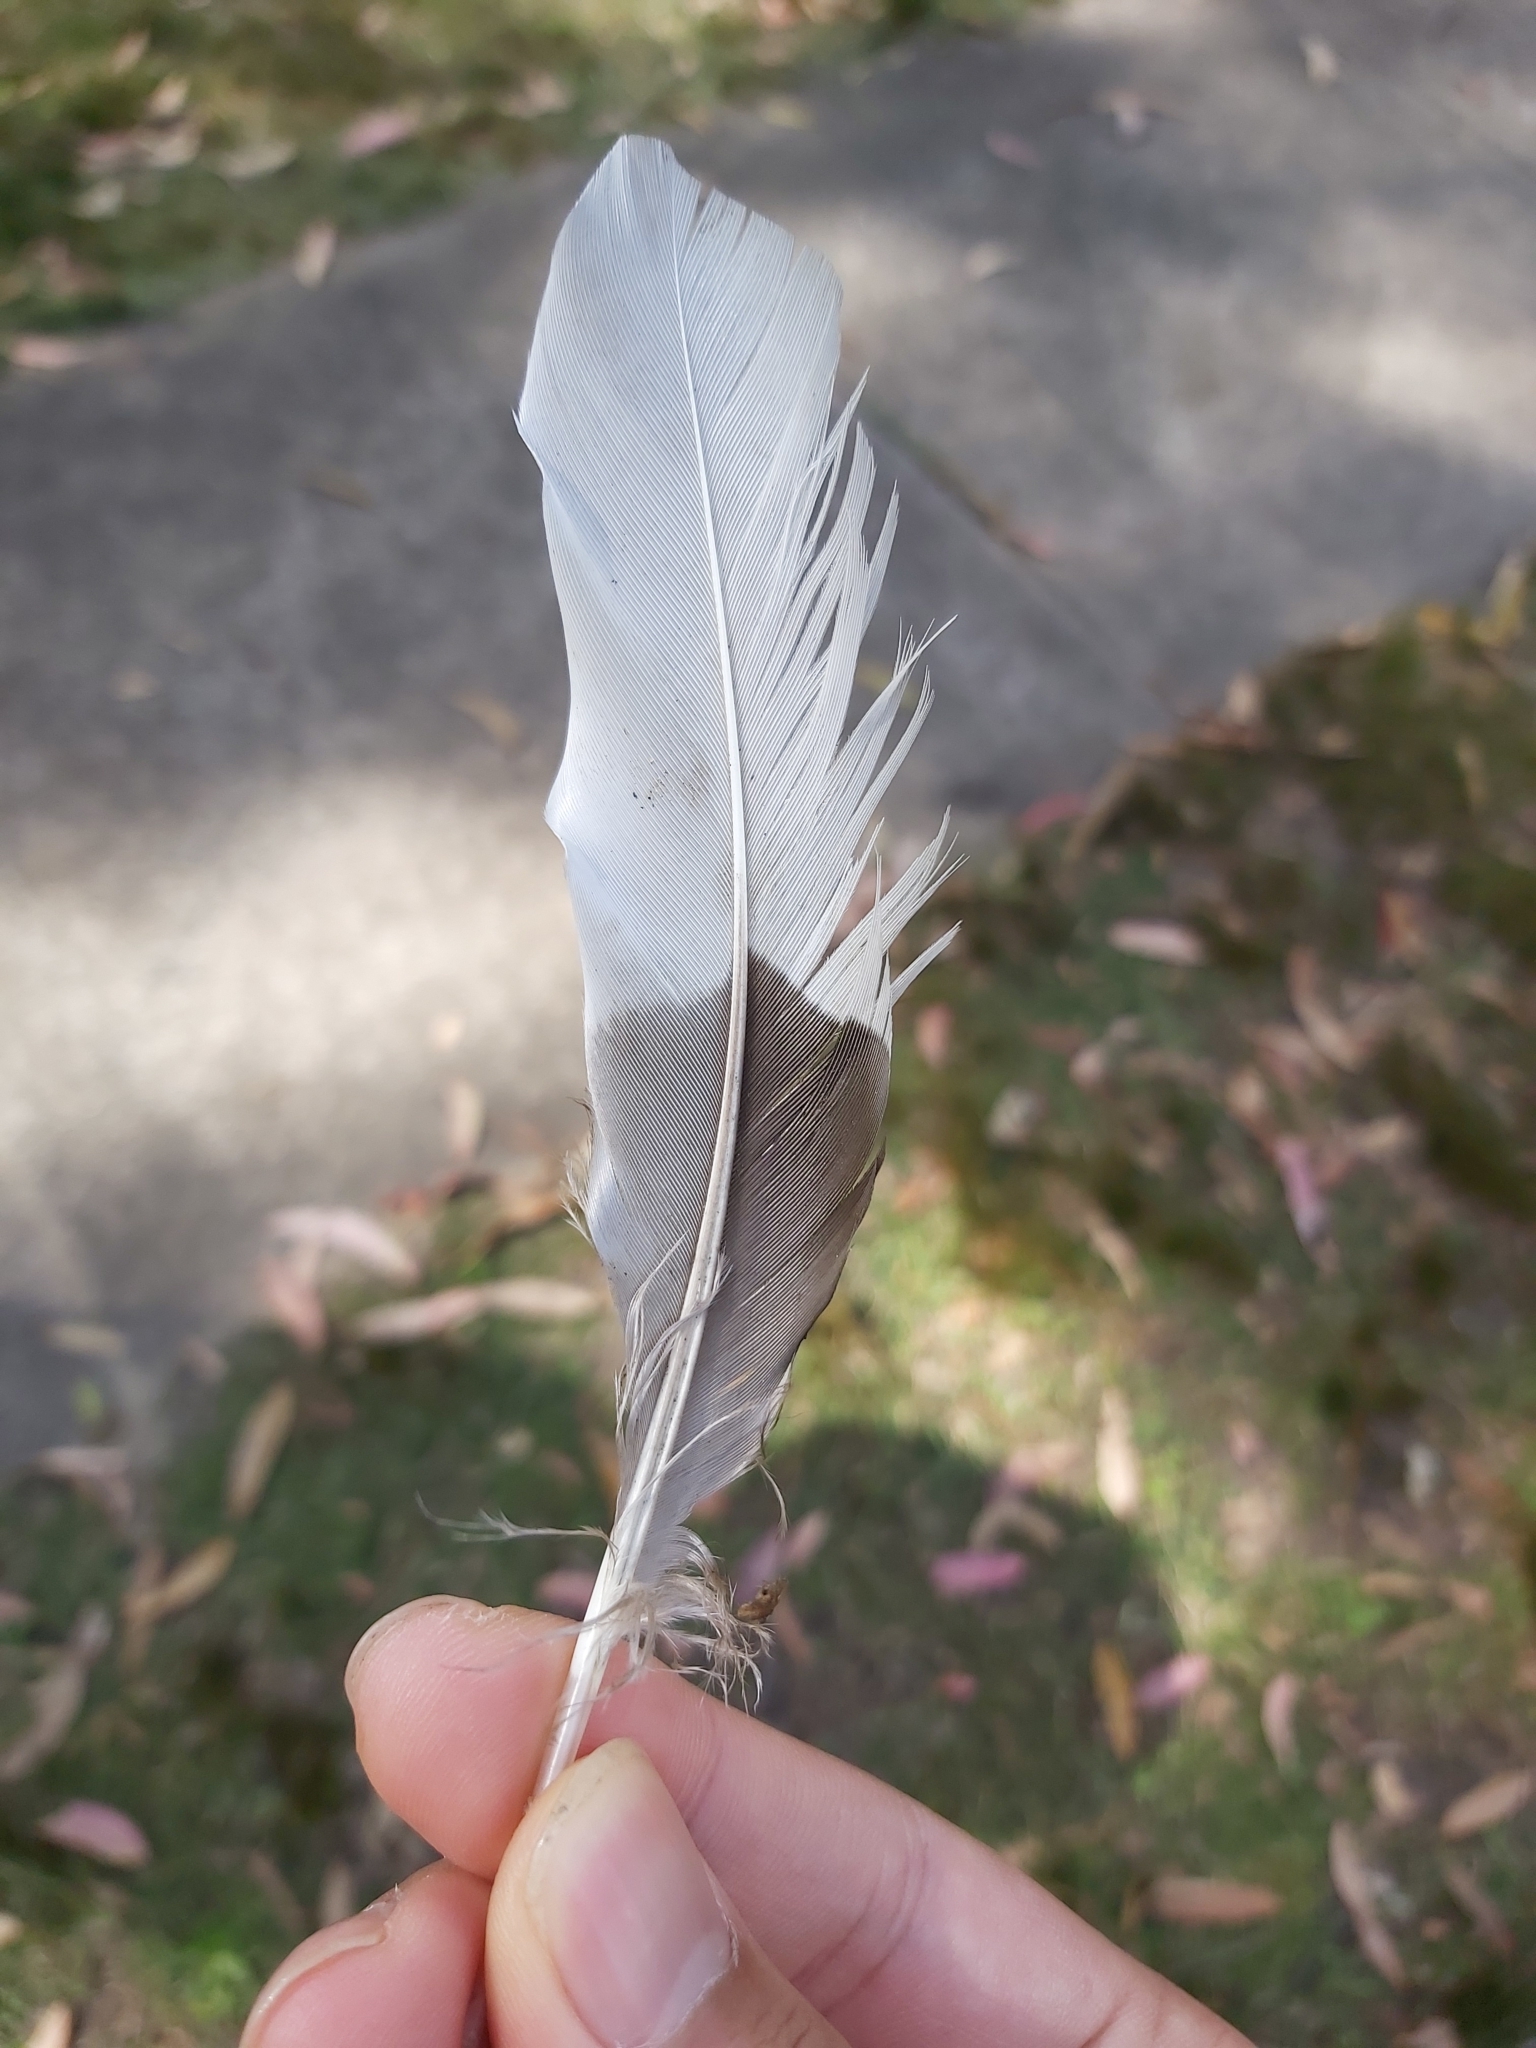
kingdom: Animalia
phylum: Chordata
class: Aves
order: Anseriformes
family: Anatidae
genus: Chenonetta
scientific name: Chenonetta jubata
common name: Maned duck
